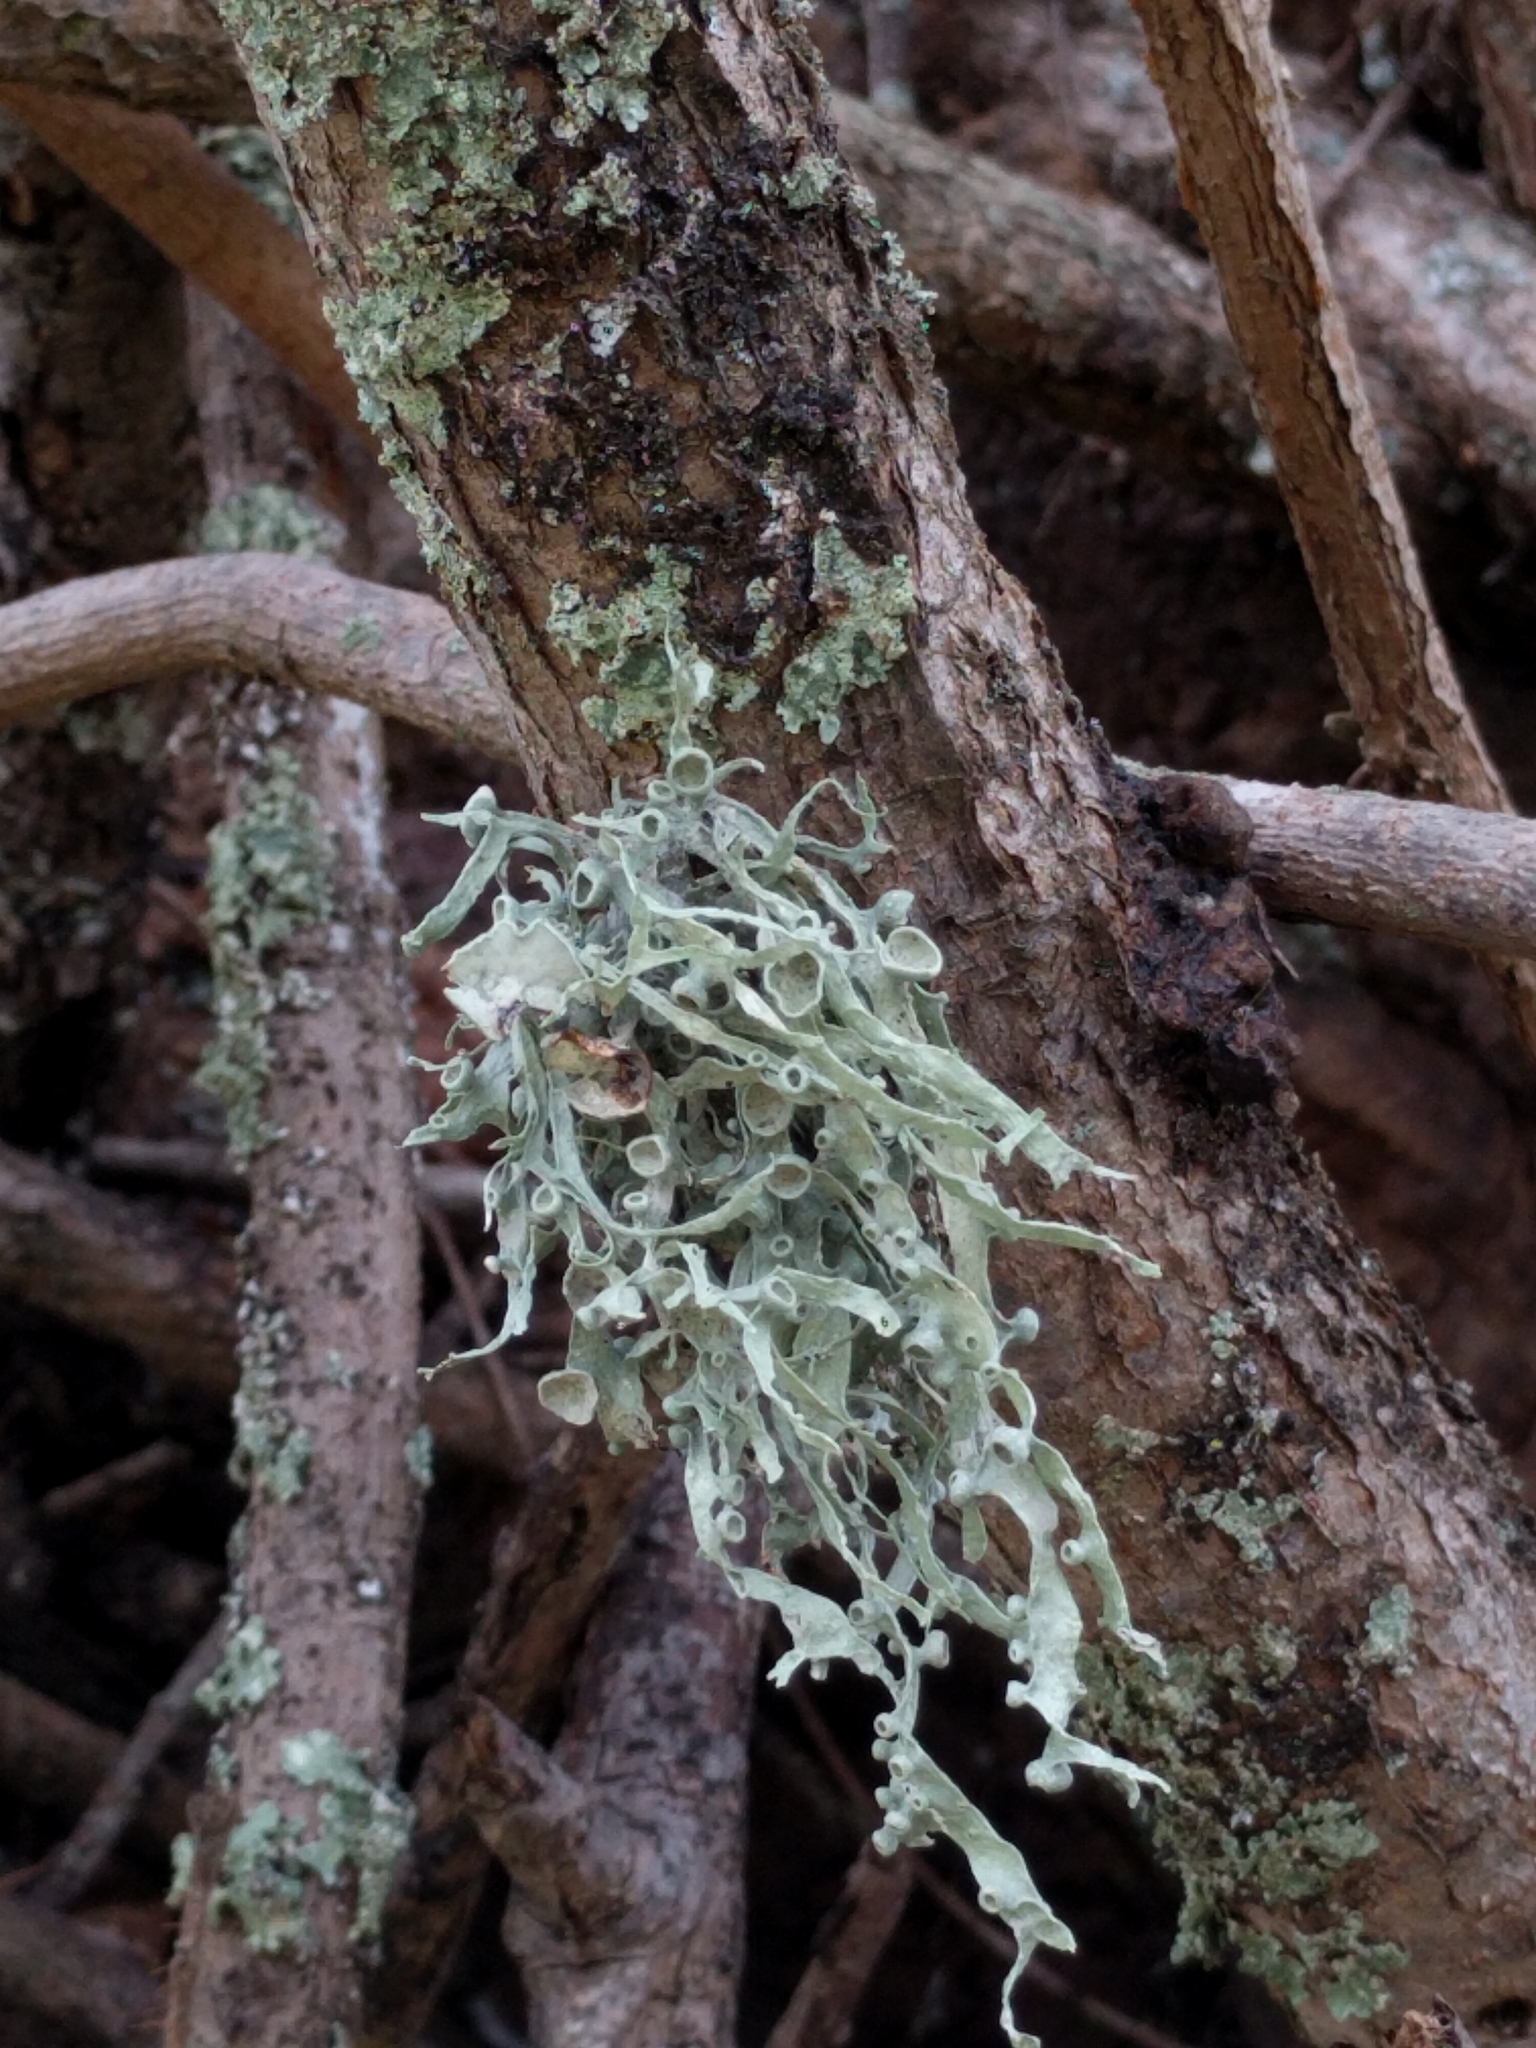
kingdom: Fungi
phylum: Ascomycota
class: Lecanoromycetes
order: Lecanorales
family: Ramalinaceae
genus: Ramalina
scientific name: Ramalina leptocarpha
